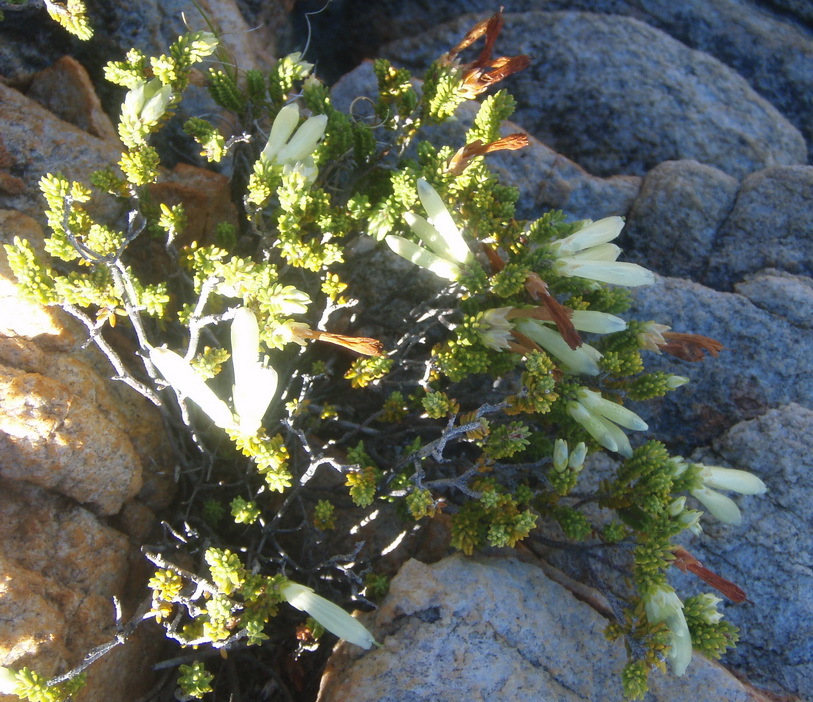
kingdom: Plantae
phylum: Tracheophyta
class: Magnoliopsida
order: Ericales
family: Ericaceae
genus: Erica
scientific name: Erica viridiflora
